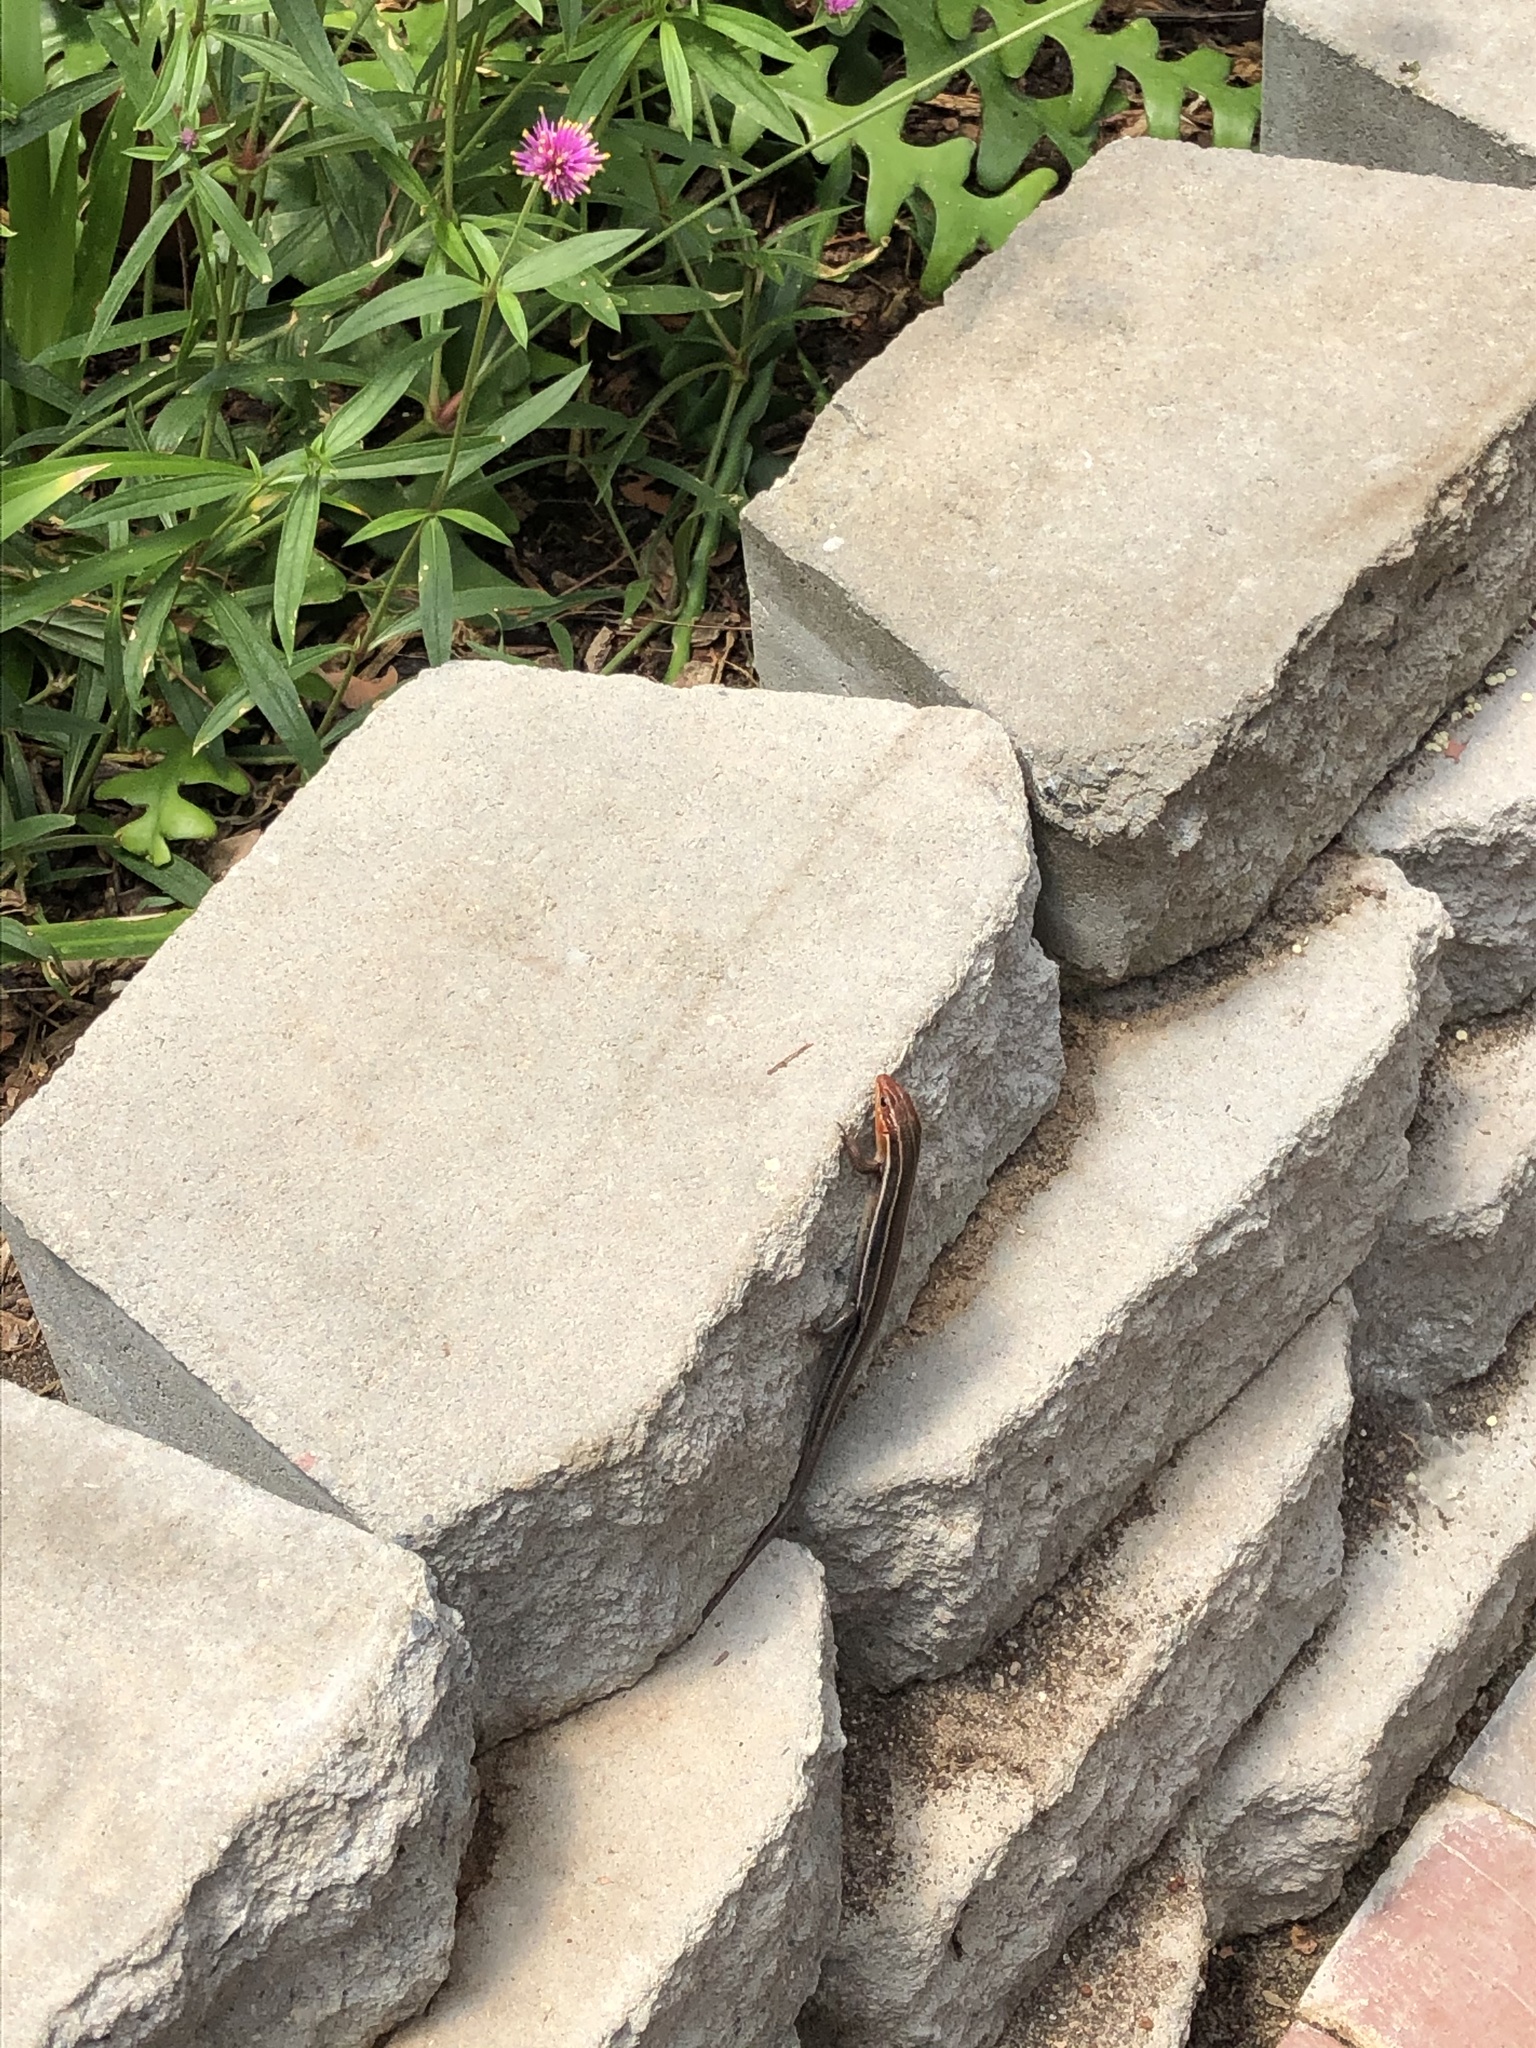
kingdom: Animalia
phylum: Chordata
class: Squamata
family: Scincidae
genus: Plestiodon
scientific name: Plestiodon inexpectatus
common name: Southeastern five-lined skink
